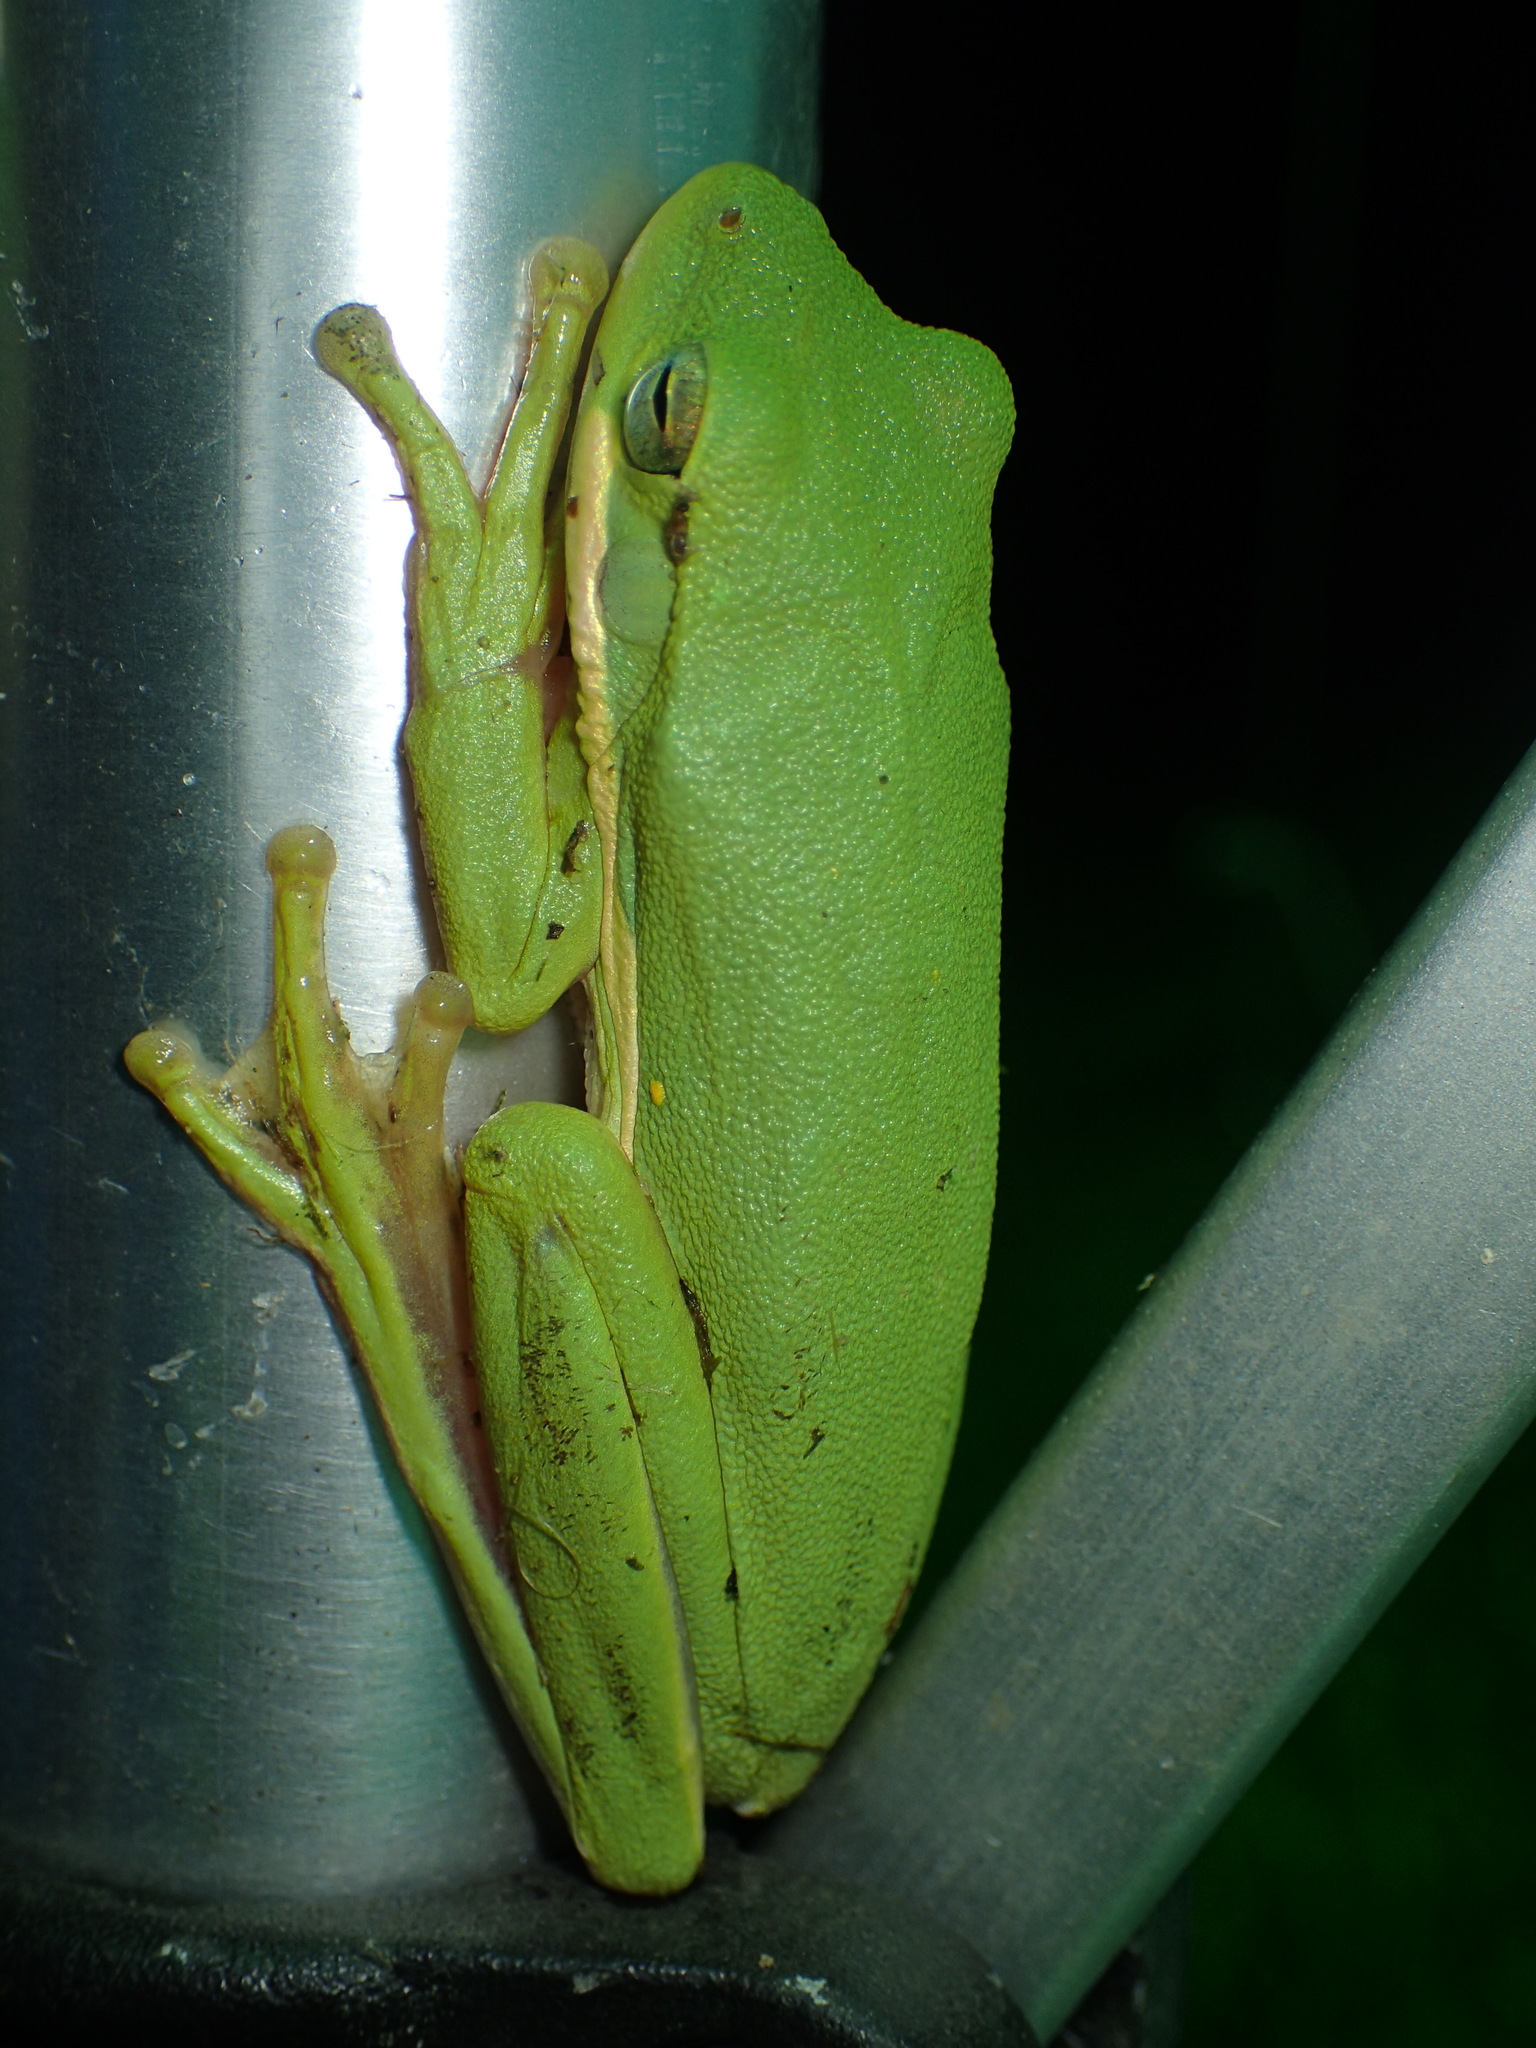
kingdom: Animalia
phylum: Chordata
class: Amphibia
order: Anura
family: Hylidae
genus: Dryophytes
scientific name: Dryophytes cinereus
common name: Green treefrog
